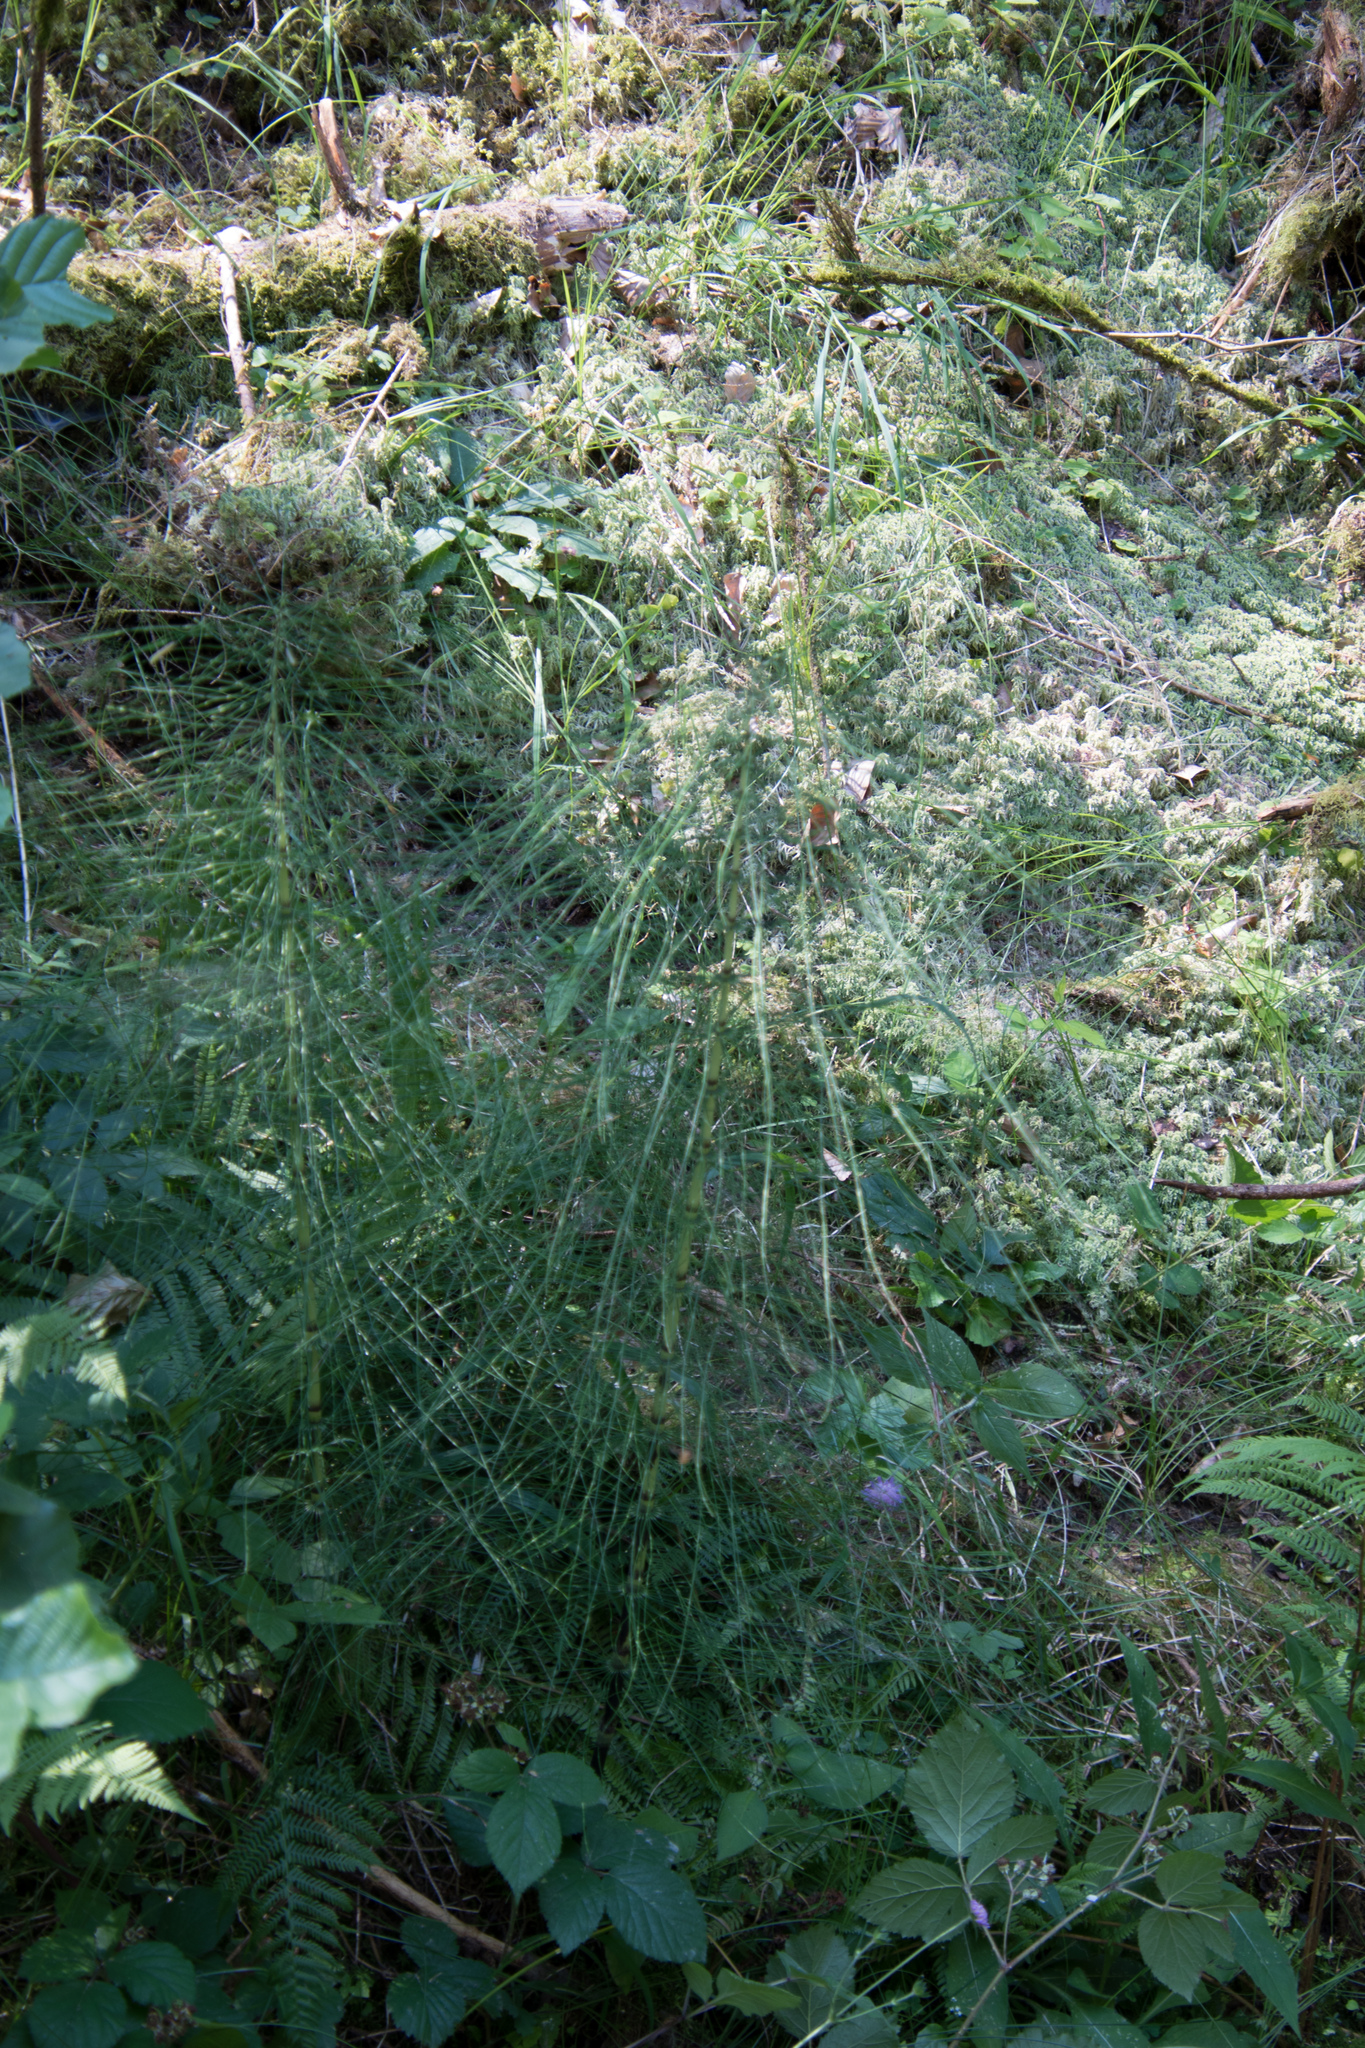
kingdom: Plantae
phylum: Tracheophyta
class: Polypodiopsida
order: Equisetales
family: Equisetaceae
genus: Equisetum
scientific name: Equisetum telmateia
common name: Great horsetail
